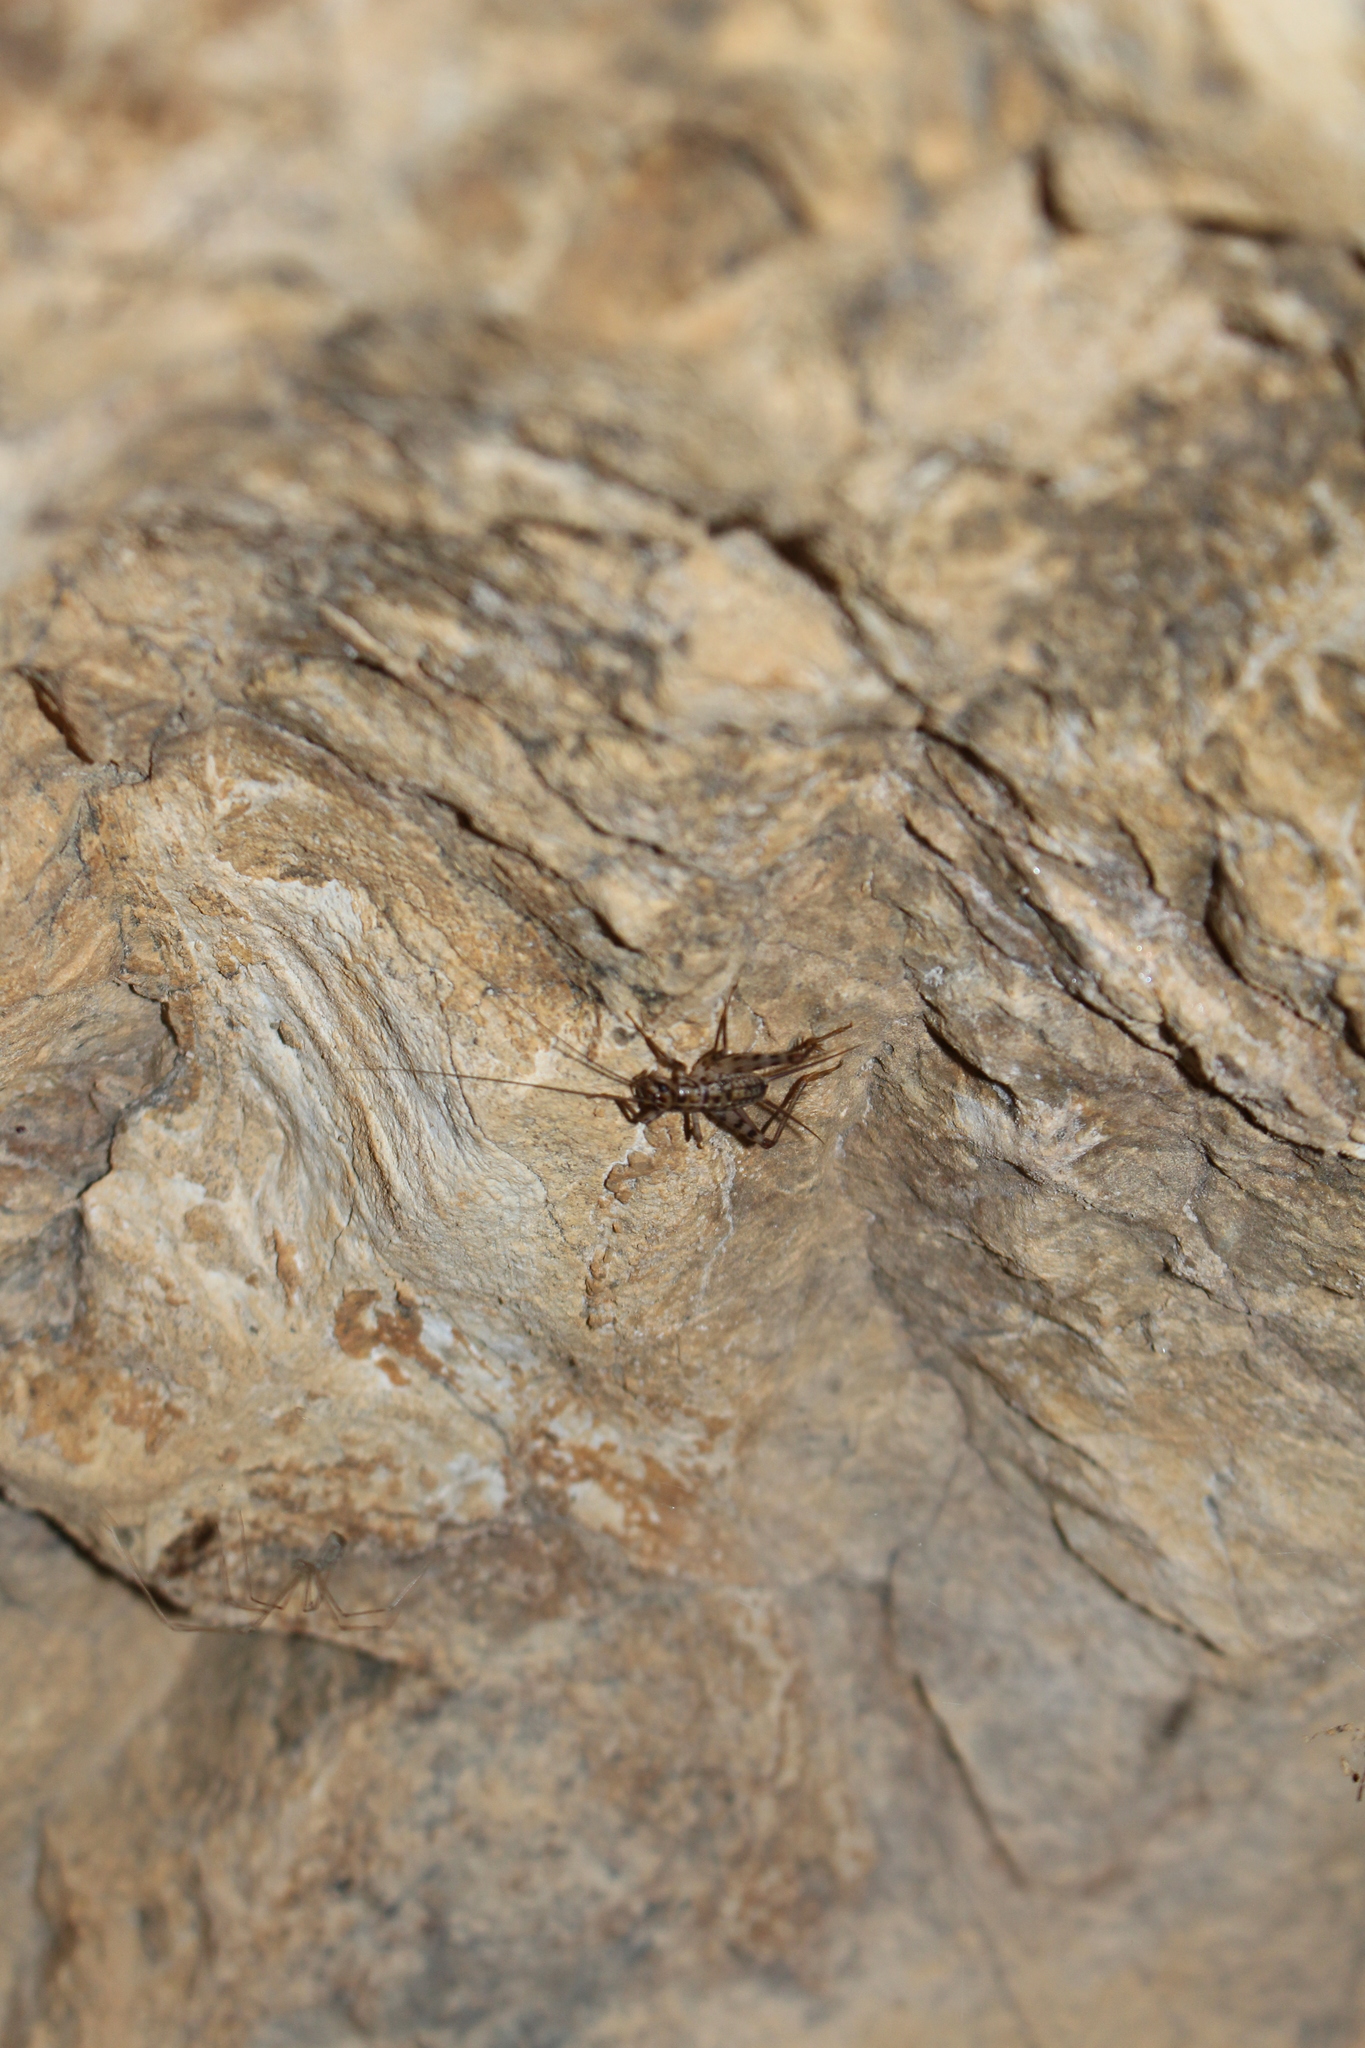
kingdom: Animalia
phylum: Arthropoda
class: Insecta
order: Orthoptera
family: Gryllidae
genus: Gryllomorpha
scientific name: Gryllomorpha dalmatina
